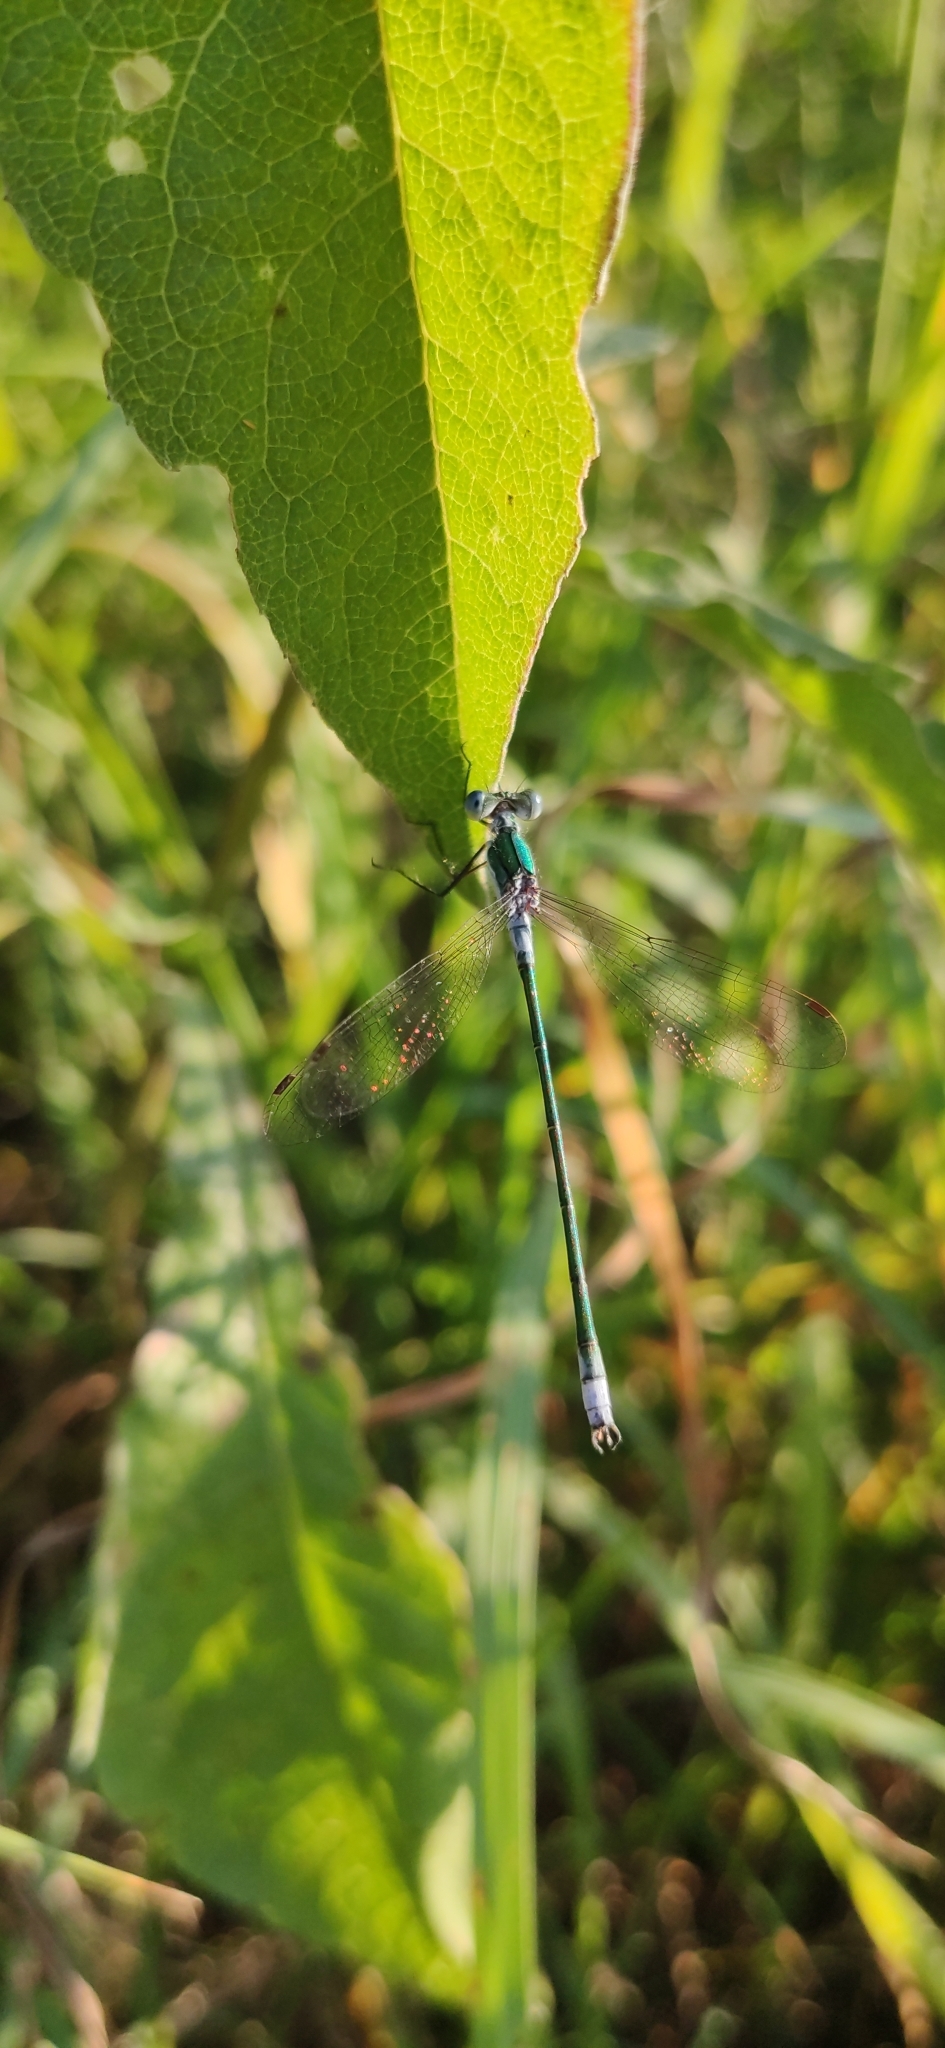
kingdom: Animalia
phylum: Arthropoda
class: Insecta
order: Odonata
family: Lestidae
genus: Lestes
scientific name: Lestes sponsa
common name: Common spreadwing
